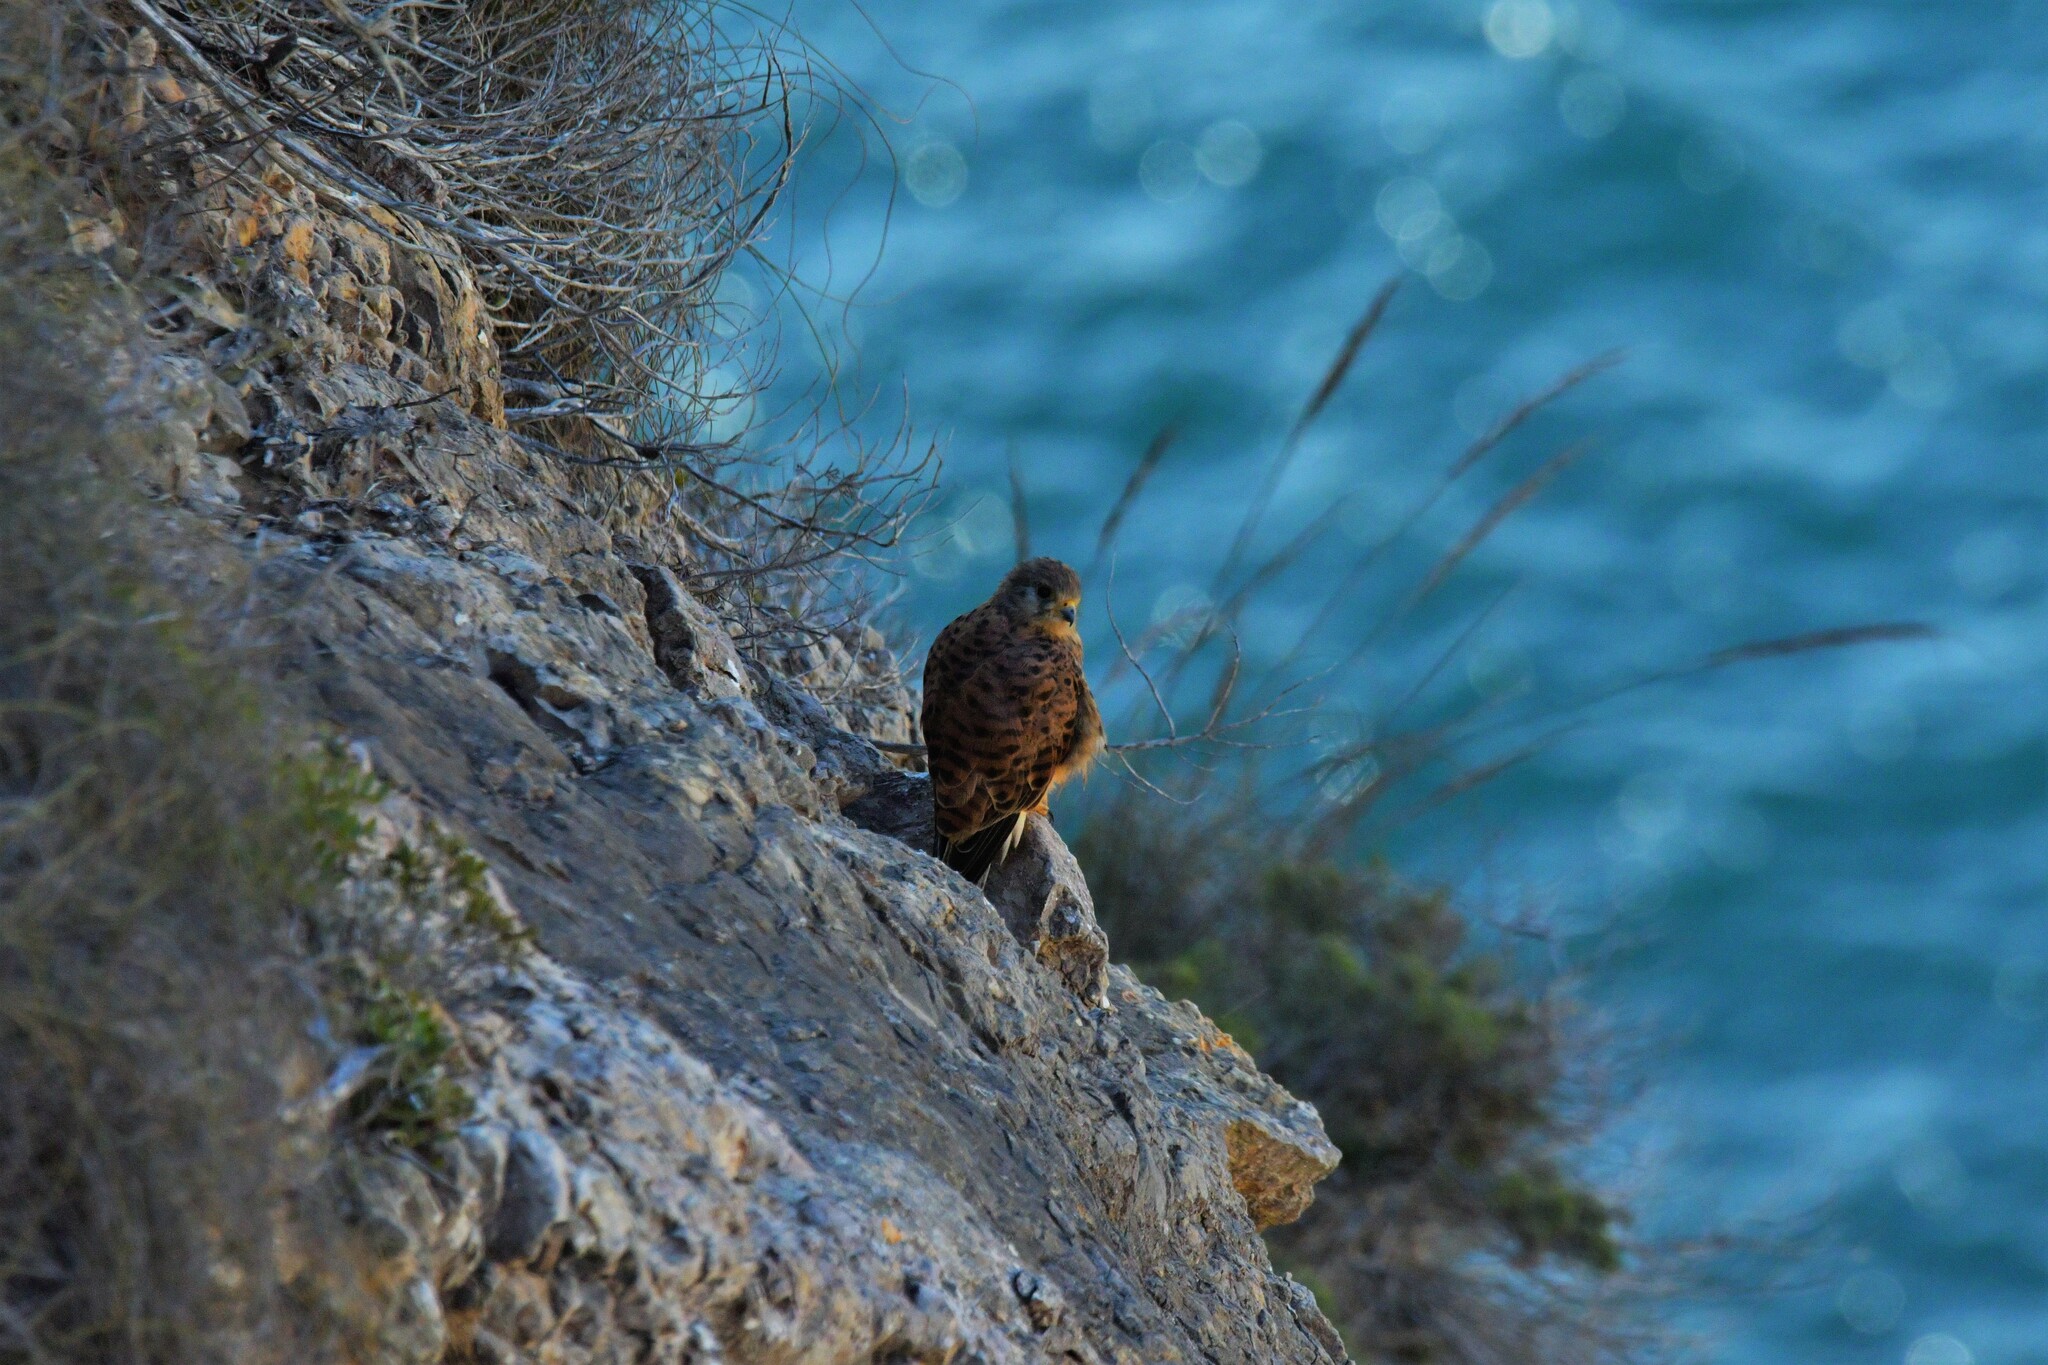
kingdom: Animalia
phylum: Chordata
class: Aves
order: Falconiformes
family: Falconidae
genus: Falco
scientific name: Falco tinnunculus
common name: Common kestrel
